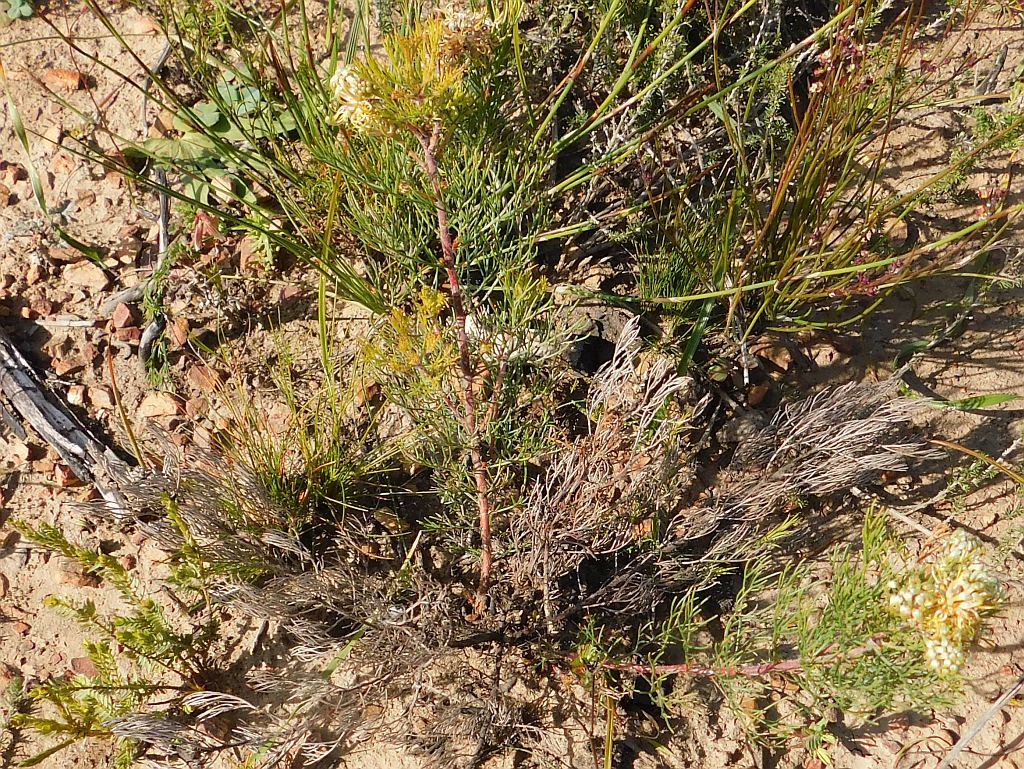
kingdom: Plantae
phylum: Tracheophyta
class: Magnoliopsida
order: Proteales
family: Proteaceae
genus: Serruria
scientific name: Serruria
